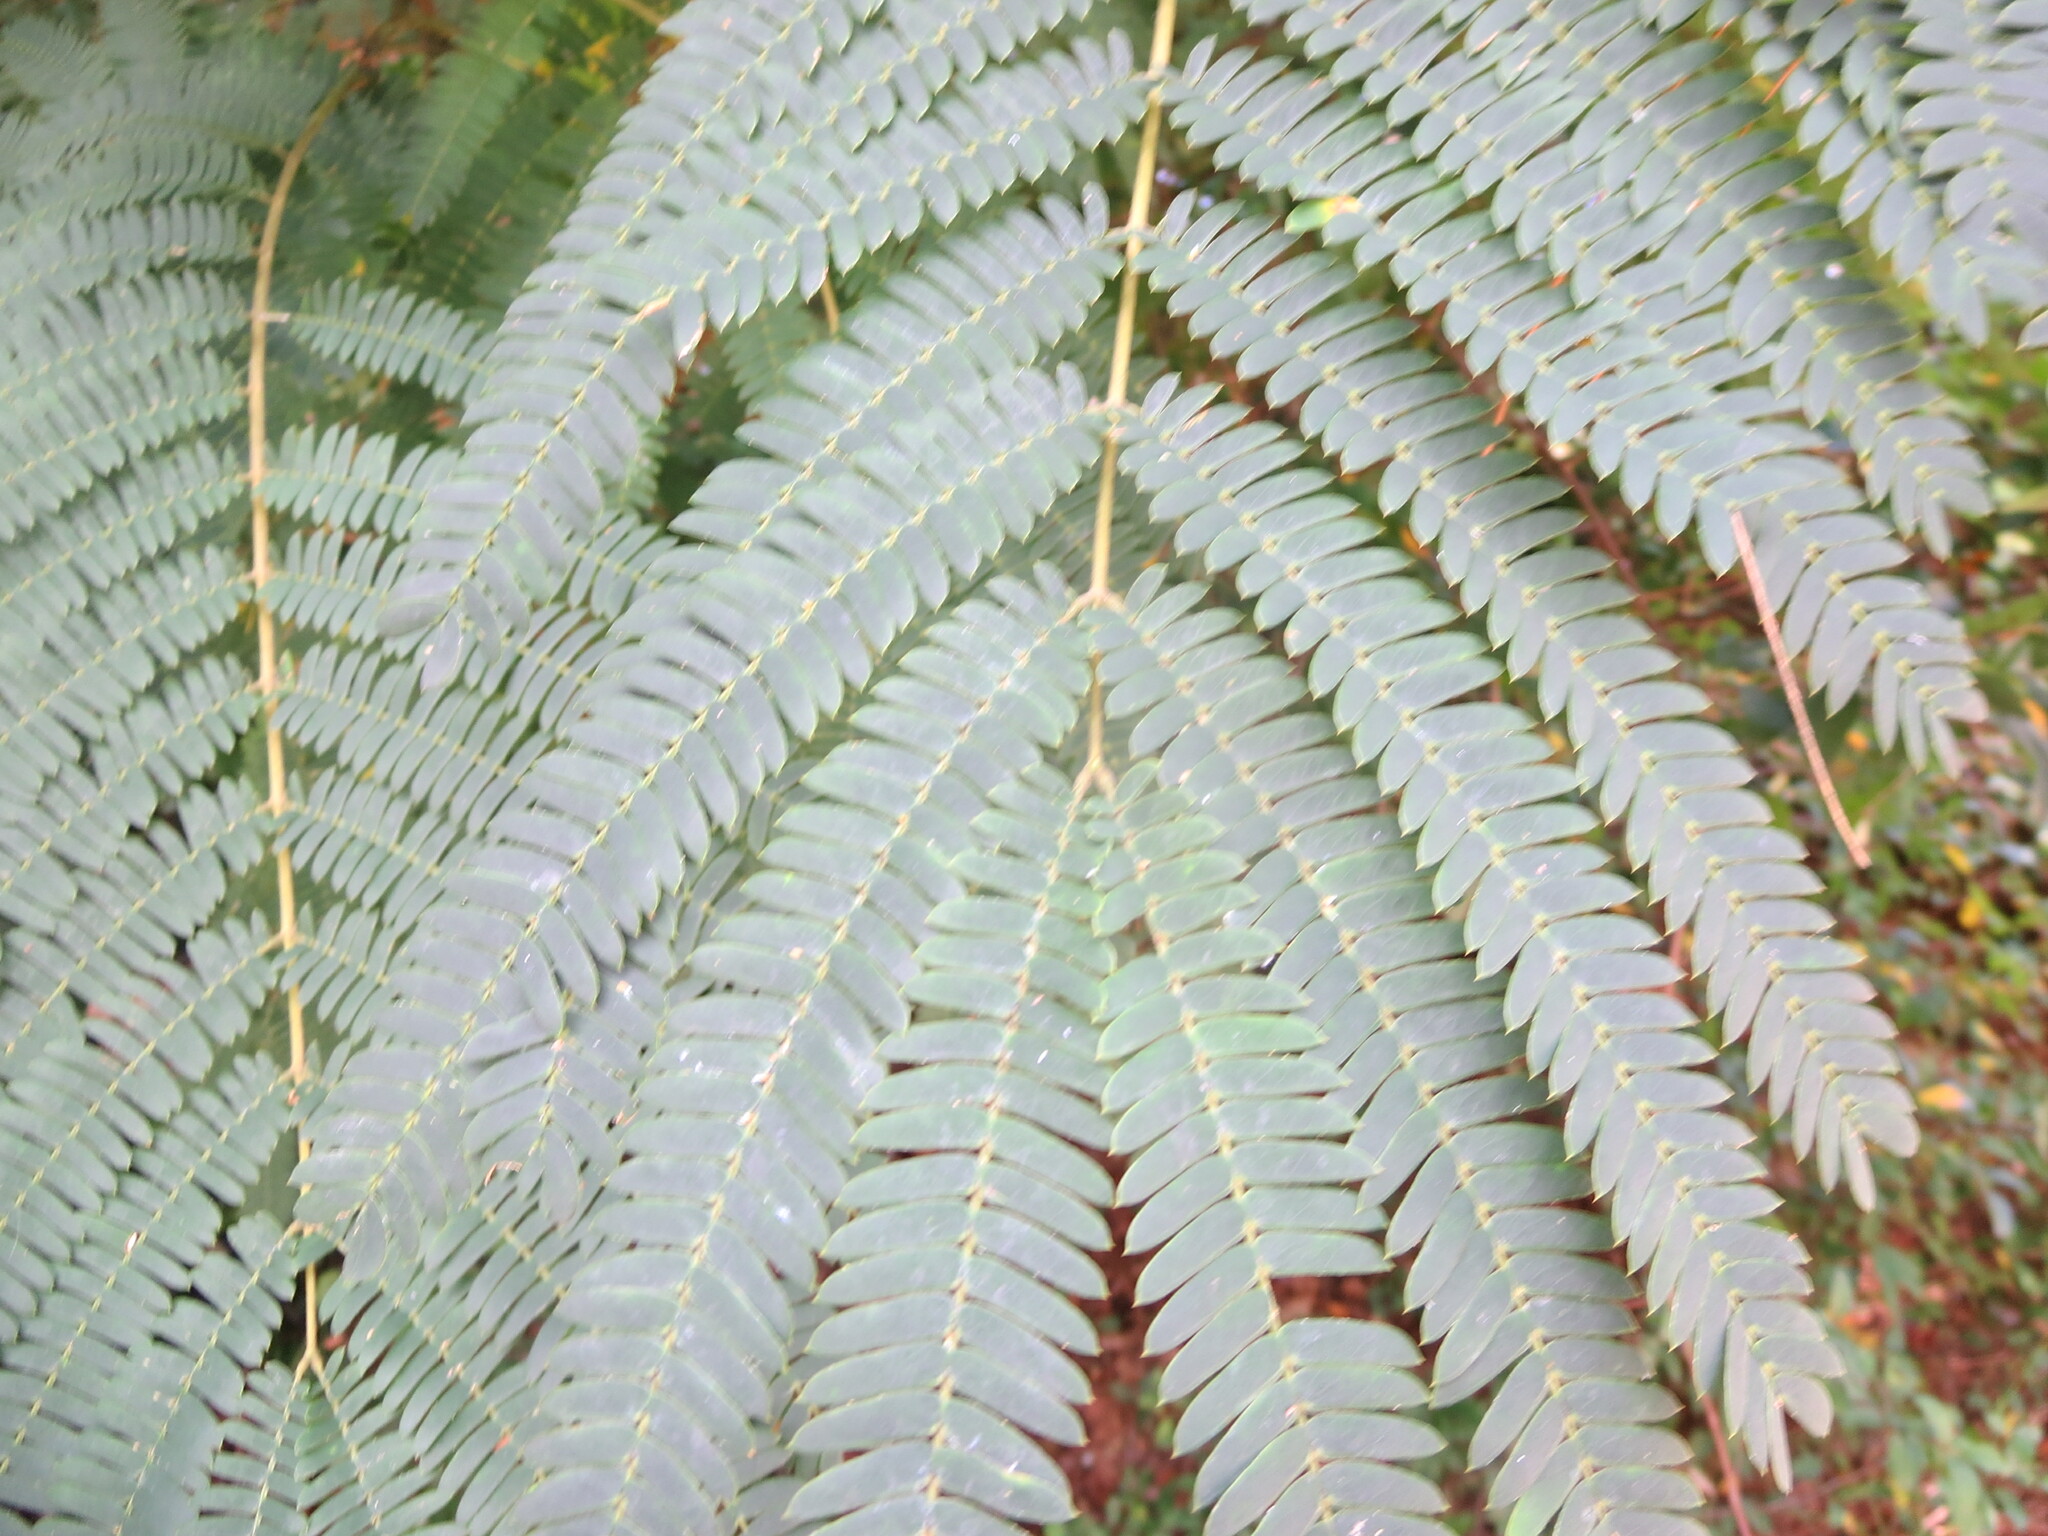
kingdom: Plantae
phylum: Tracheophyta
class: Magnoliopsida
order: Fabales
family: Fabaceae
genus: Albizia
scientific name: Albizia julibrissin
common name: Silktree
